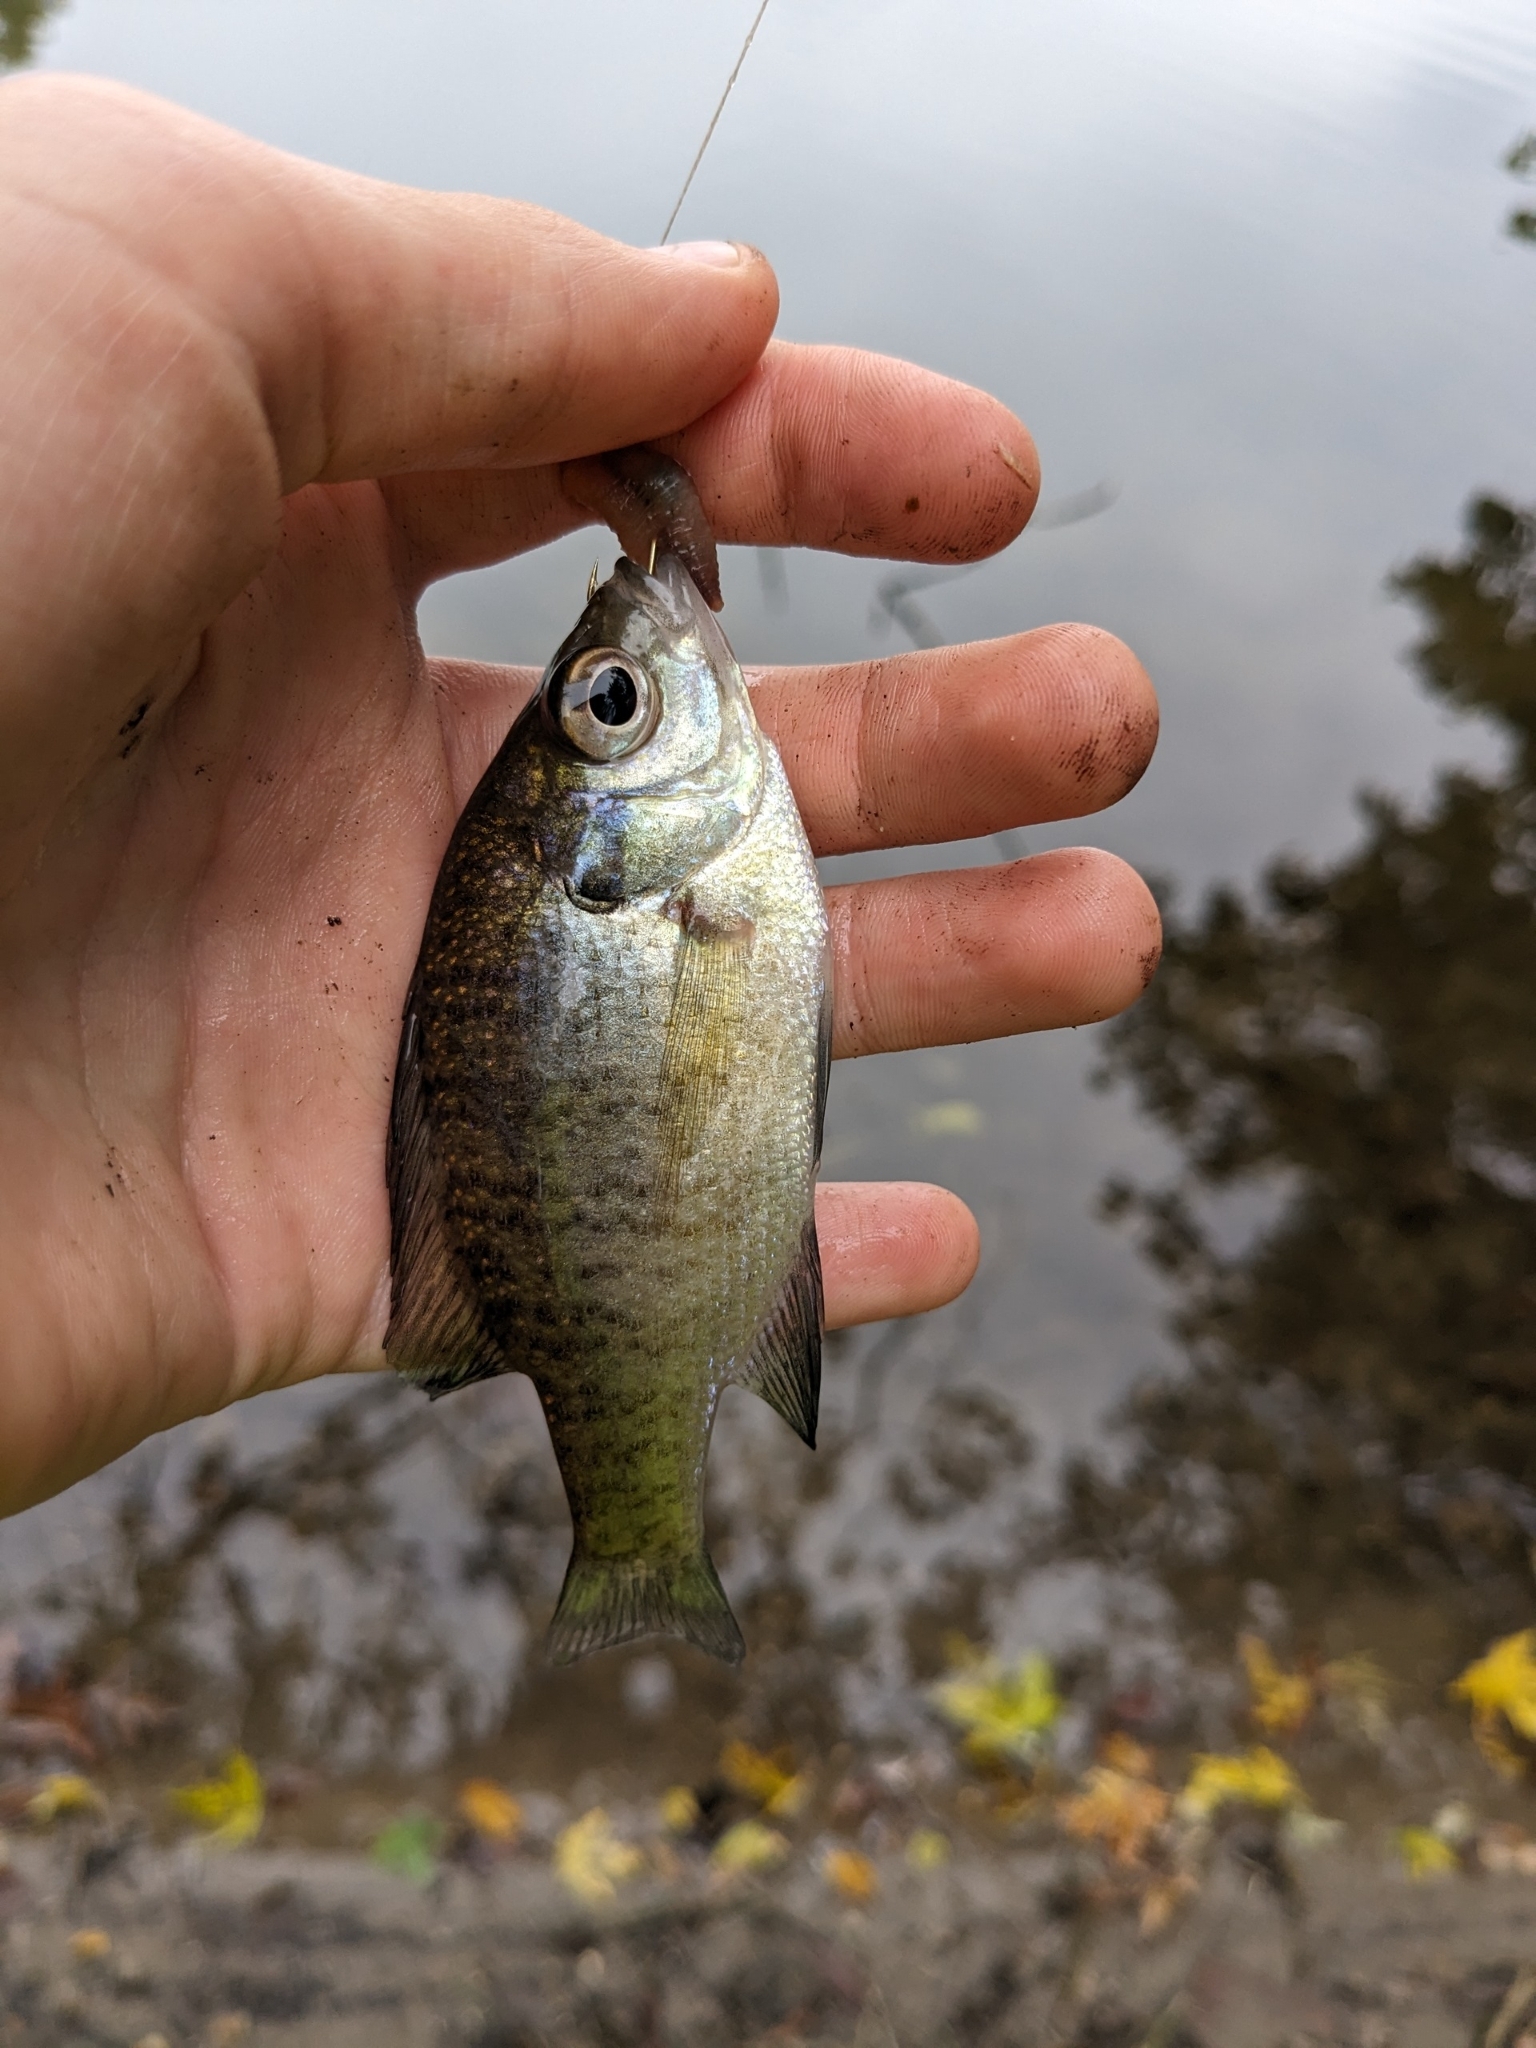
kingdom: Animalia
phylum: Chordata
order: Perciformes
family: Centrarchidae
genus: Lepomis
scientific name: Lepomis macrochirus
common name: Bluegill
